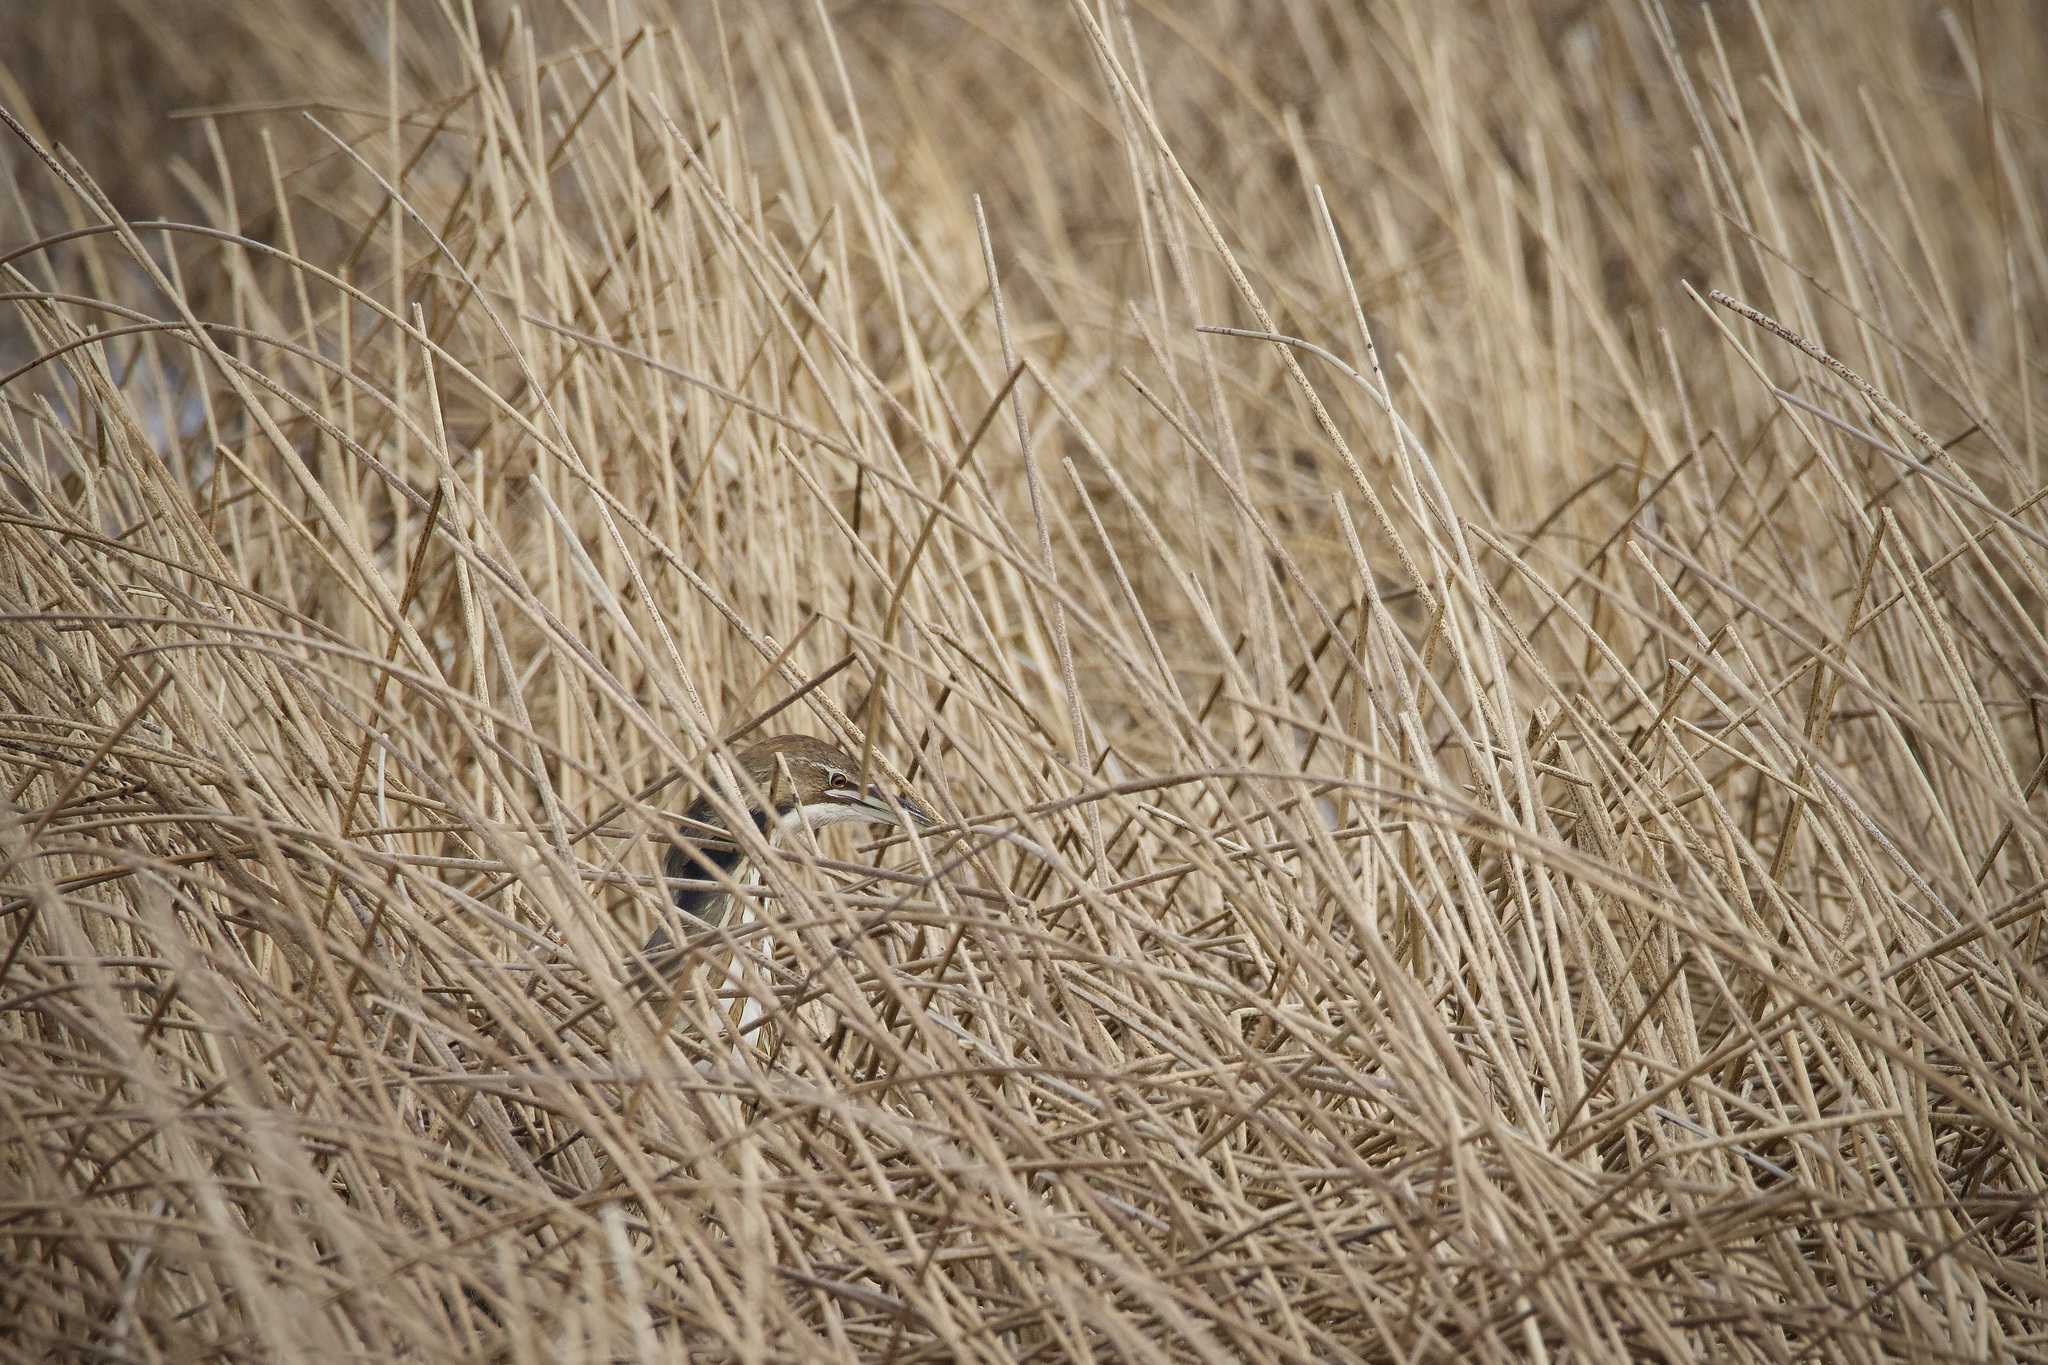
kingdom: Animalia
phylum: Chordata
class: Aves
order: Pelecaniformes
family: Ardeidae
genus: Botaurus
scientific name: Botaurus lentiginosus
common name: American bittern
